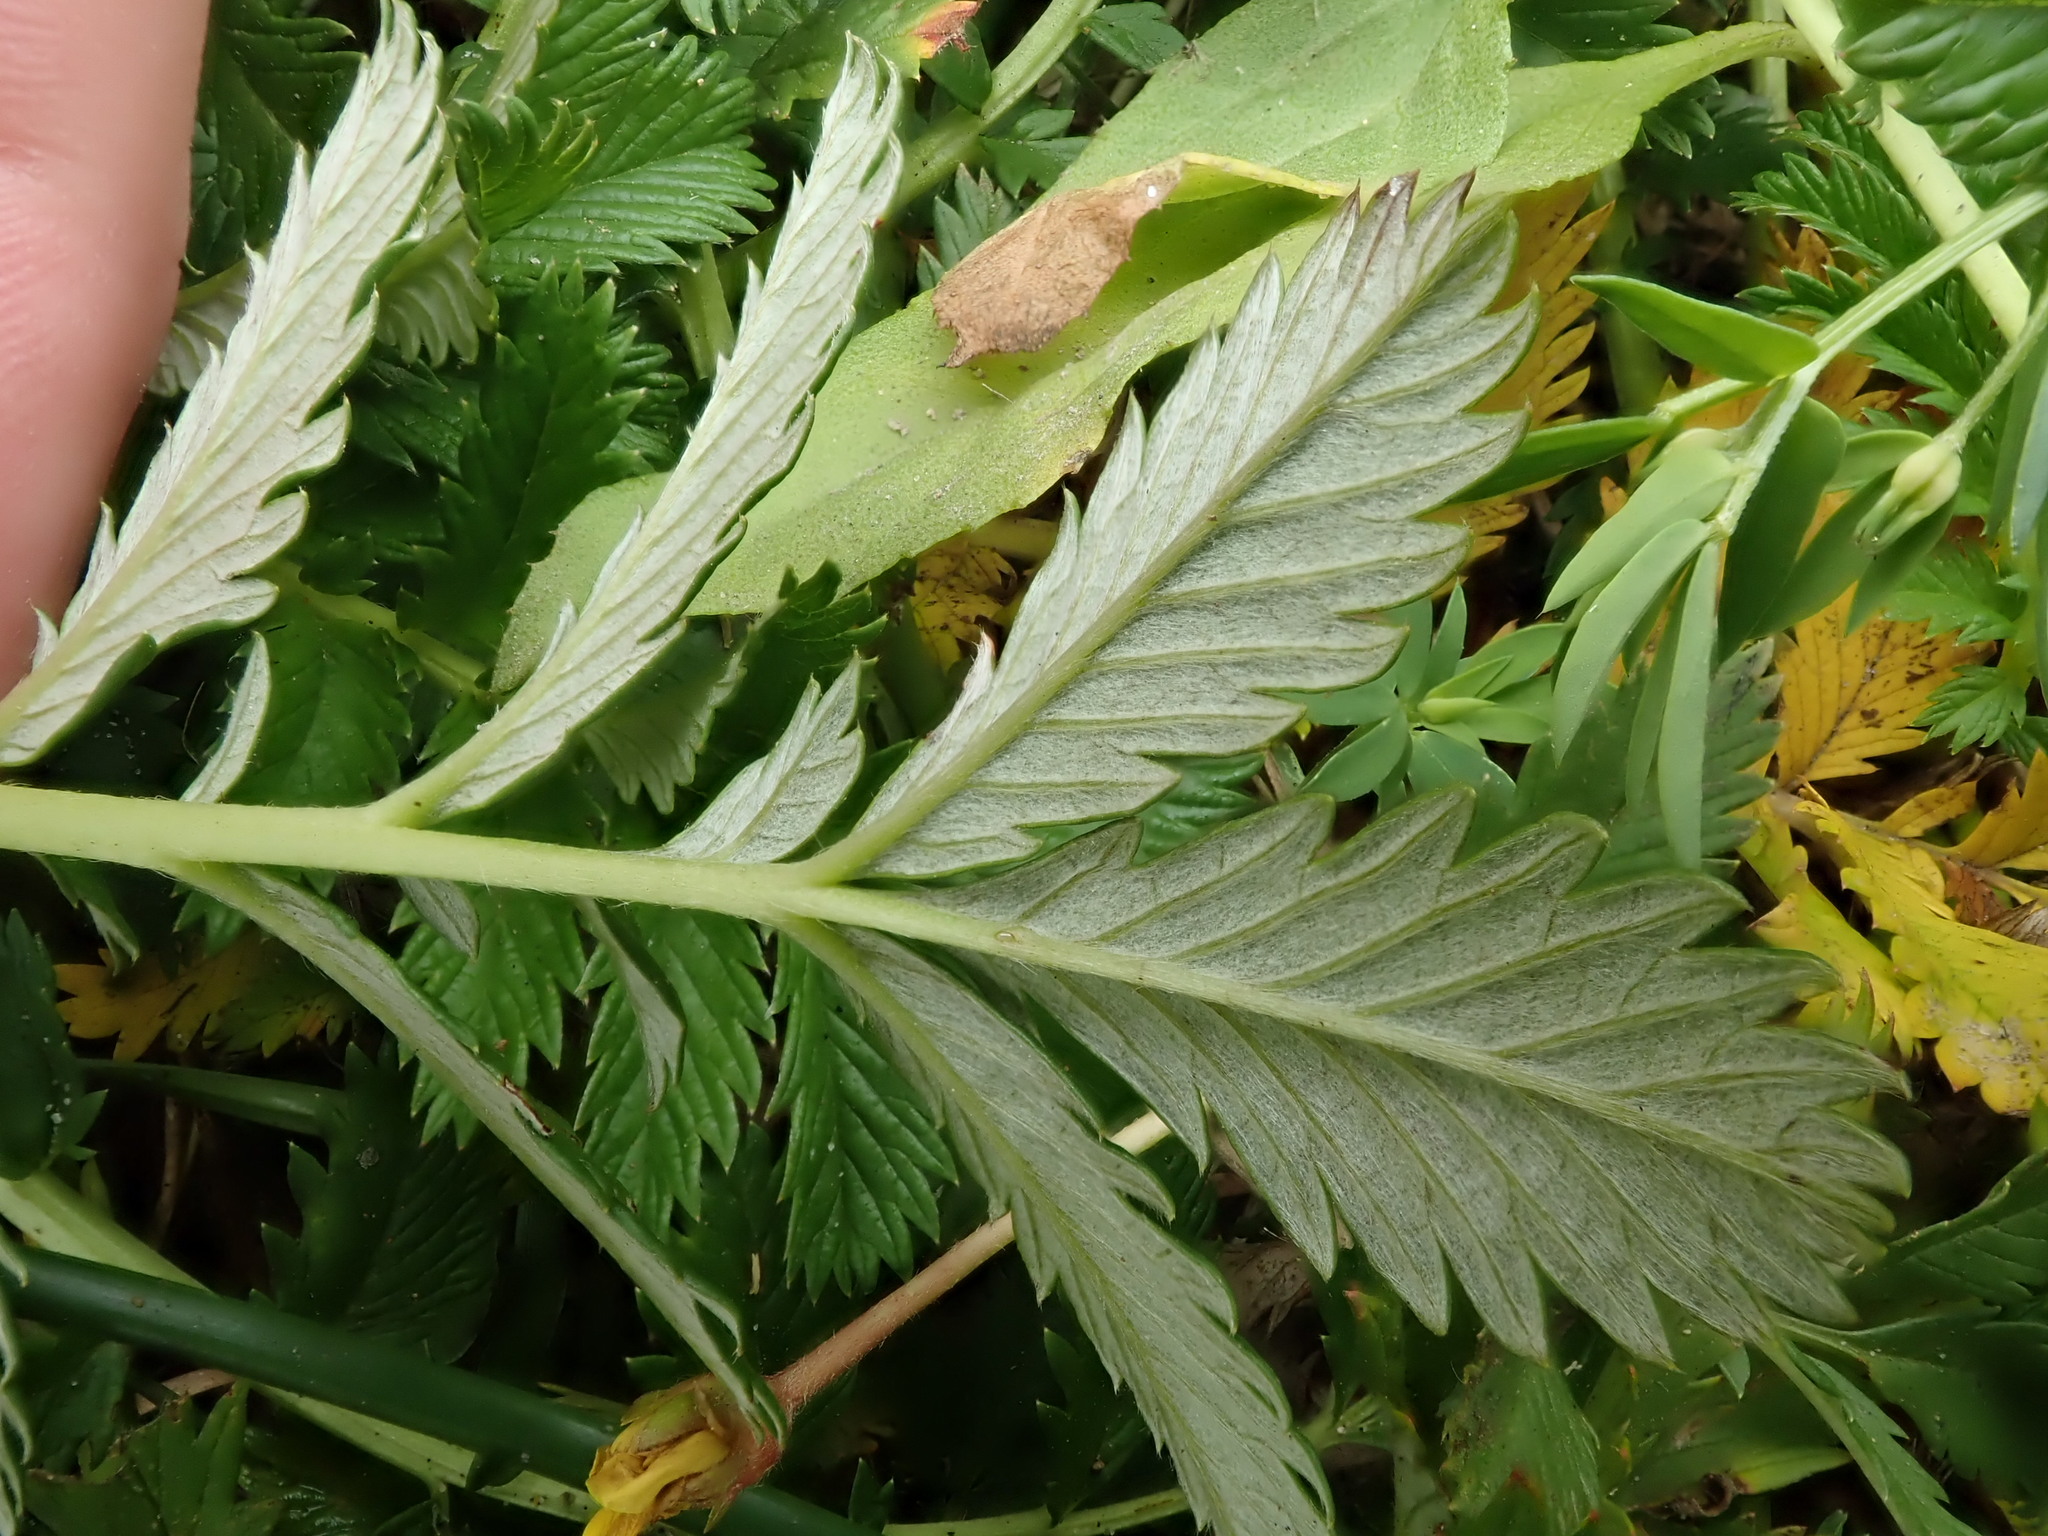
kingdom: Plantae
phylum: Tracheophyta
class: Magnoliopsida
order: Rosales
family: Rosaceae
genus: Argentina
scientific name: Argentina anserina
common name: Common silverweed
